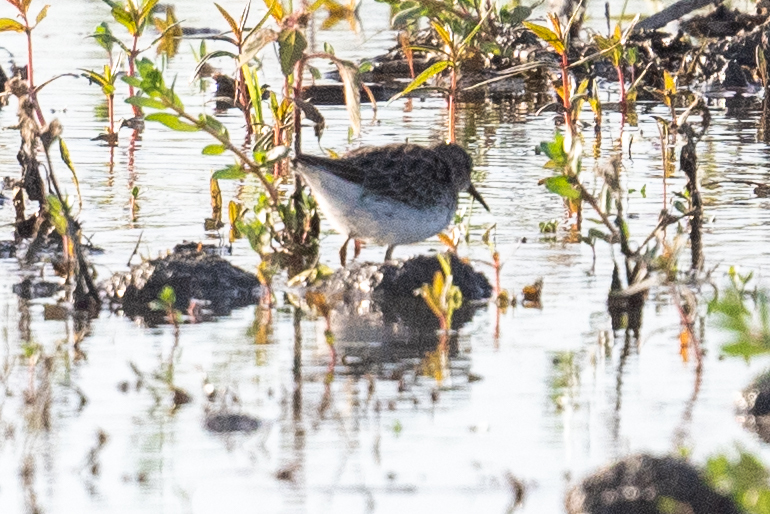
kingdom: Animalia
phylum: Chordata
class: Aves
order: Charadriiformes
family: Scolopacidae
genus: Calidris
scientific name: Calidris minutilla
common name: Least sandpiper
